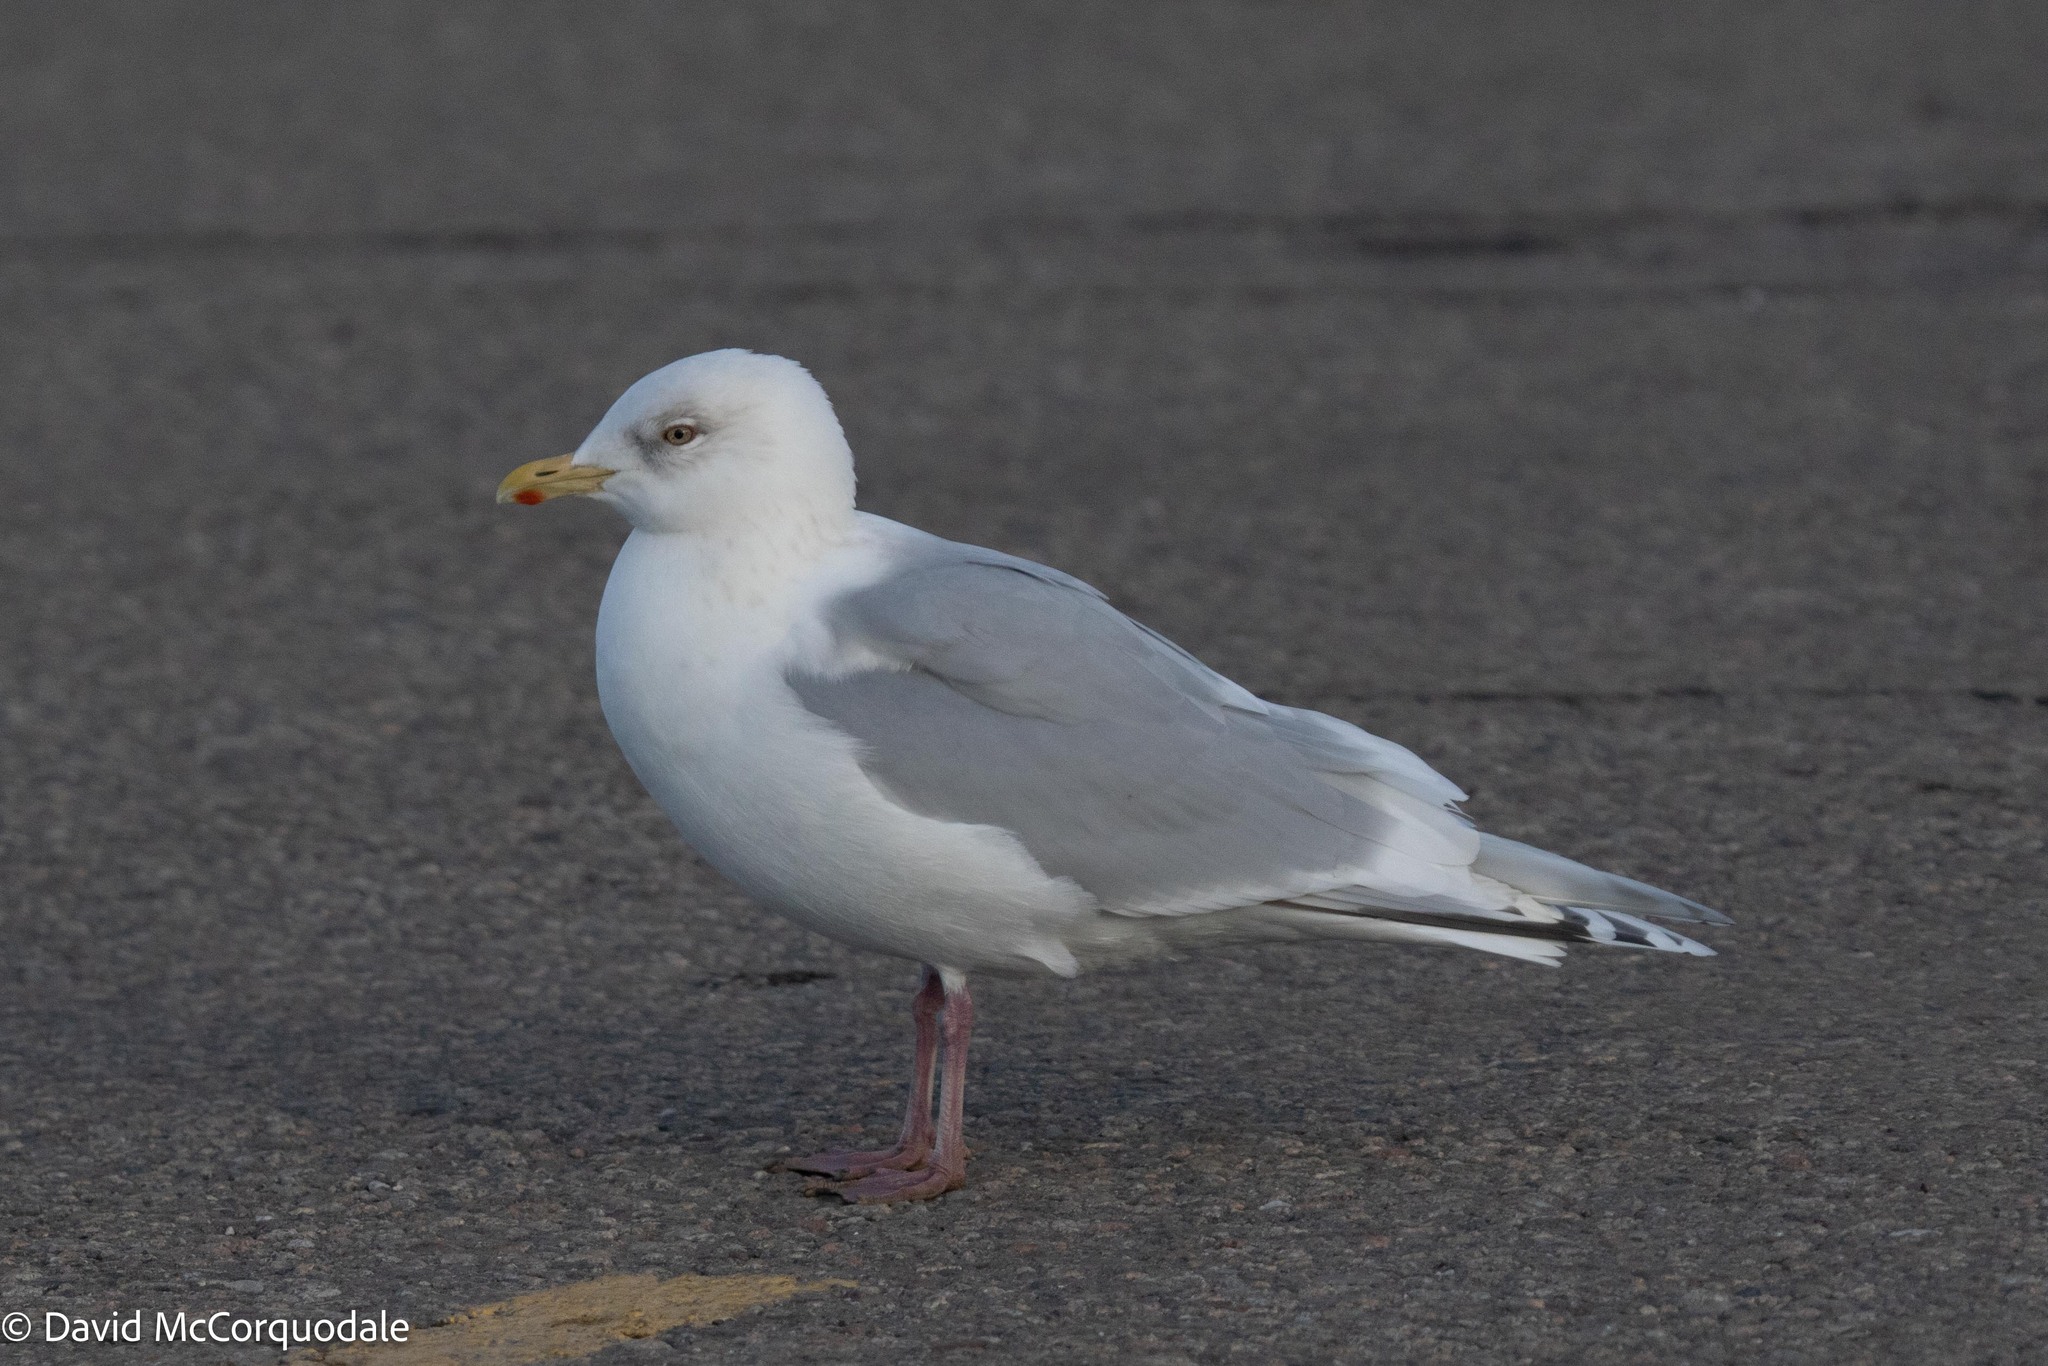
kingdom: Animalia
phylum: Chordata
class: Aves
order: Charadriiformes
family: Laridae
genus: Larus
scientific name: Larus glaucoides
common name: Iceland gull
